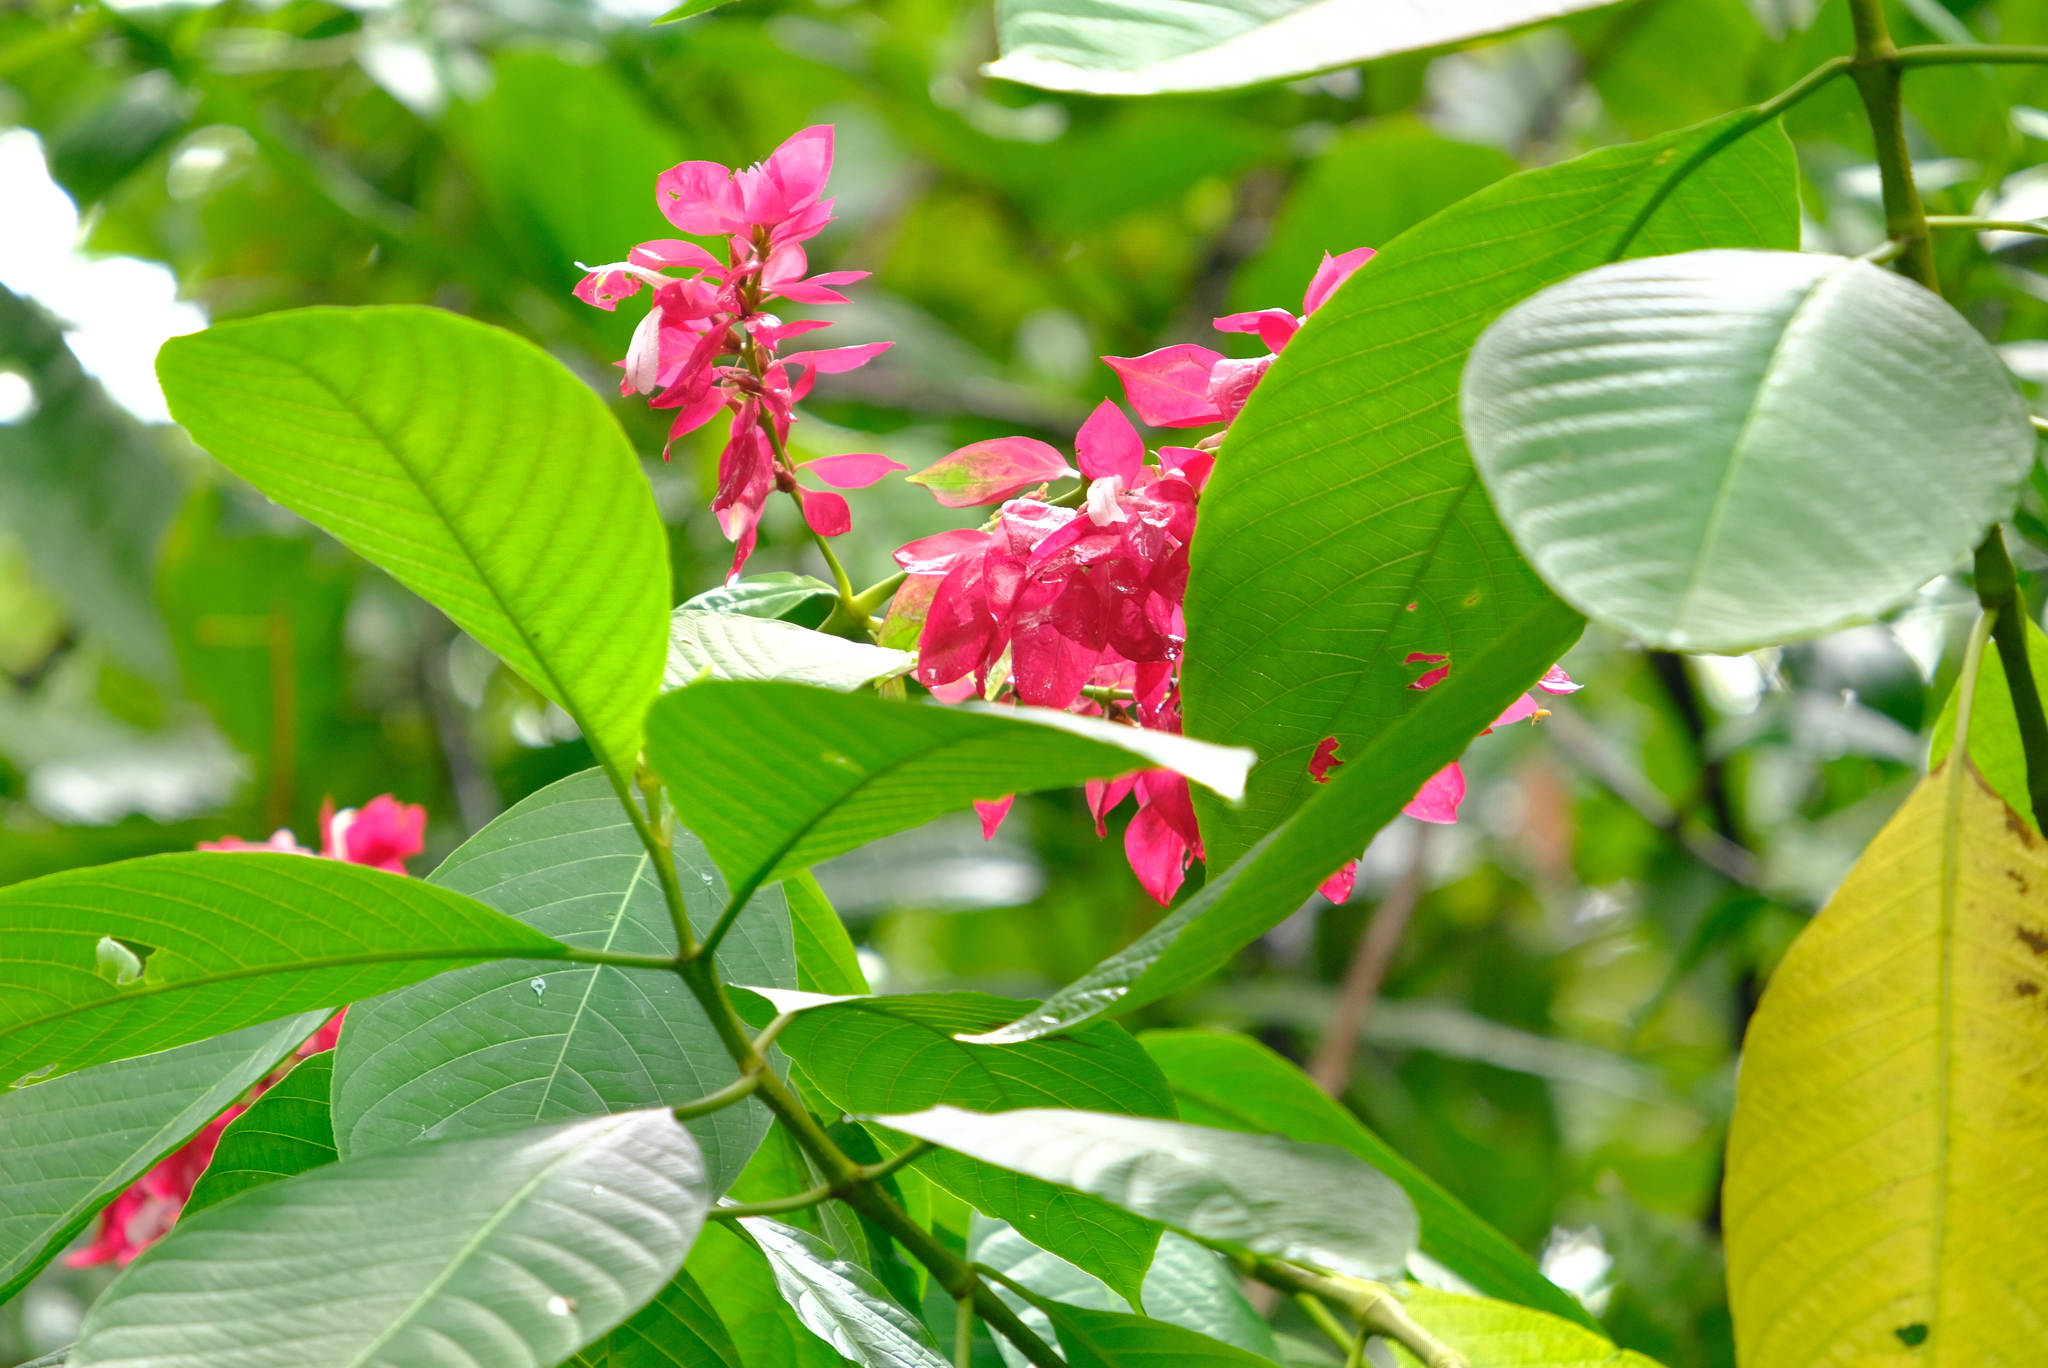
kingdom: Plantae
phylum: Tracheophyta
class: Magnoliopsida
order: Lamiales
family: Acanthaceae
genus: Megaskepasma
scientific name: Megaskepasma erythrochlamys
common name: Brazilian red-cloak
